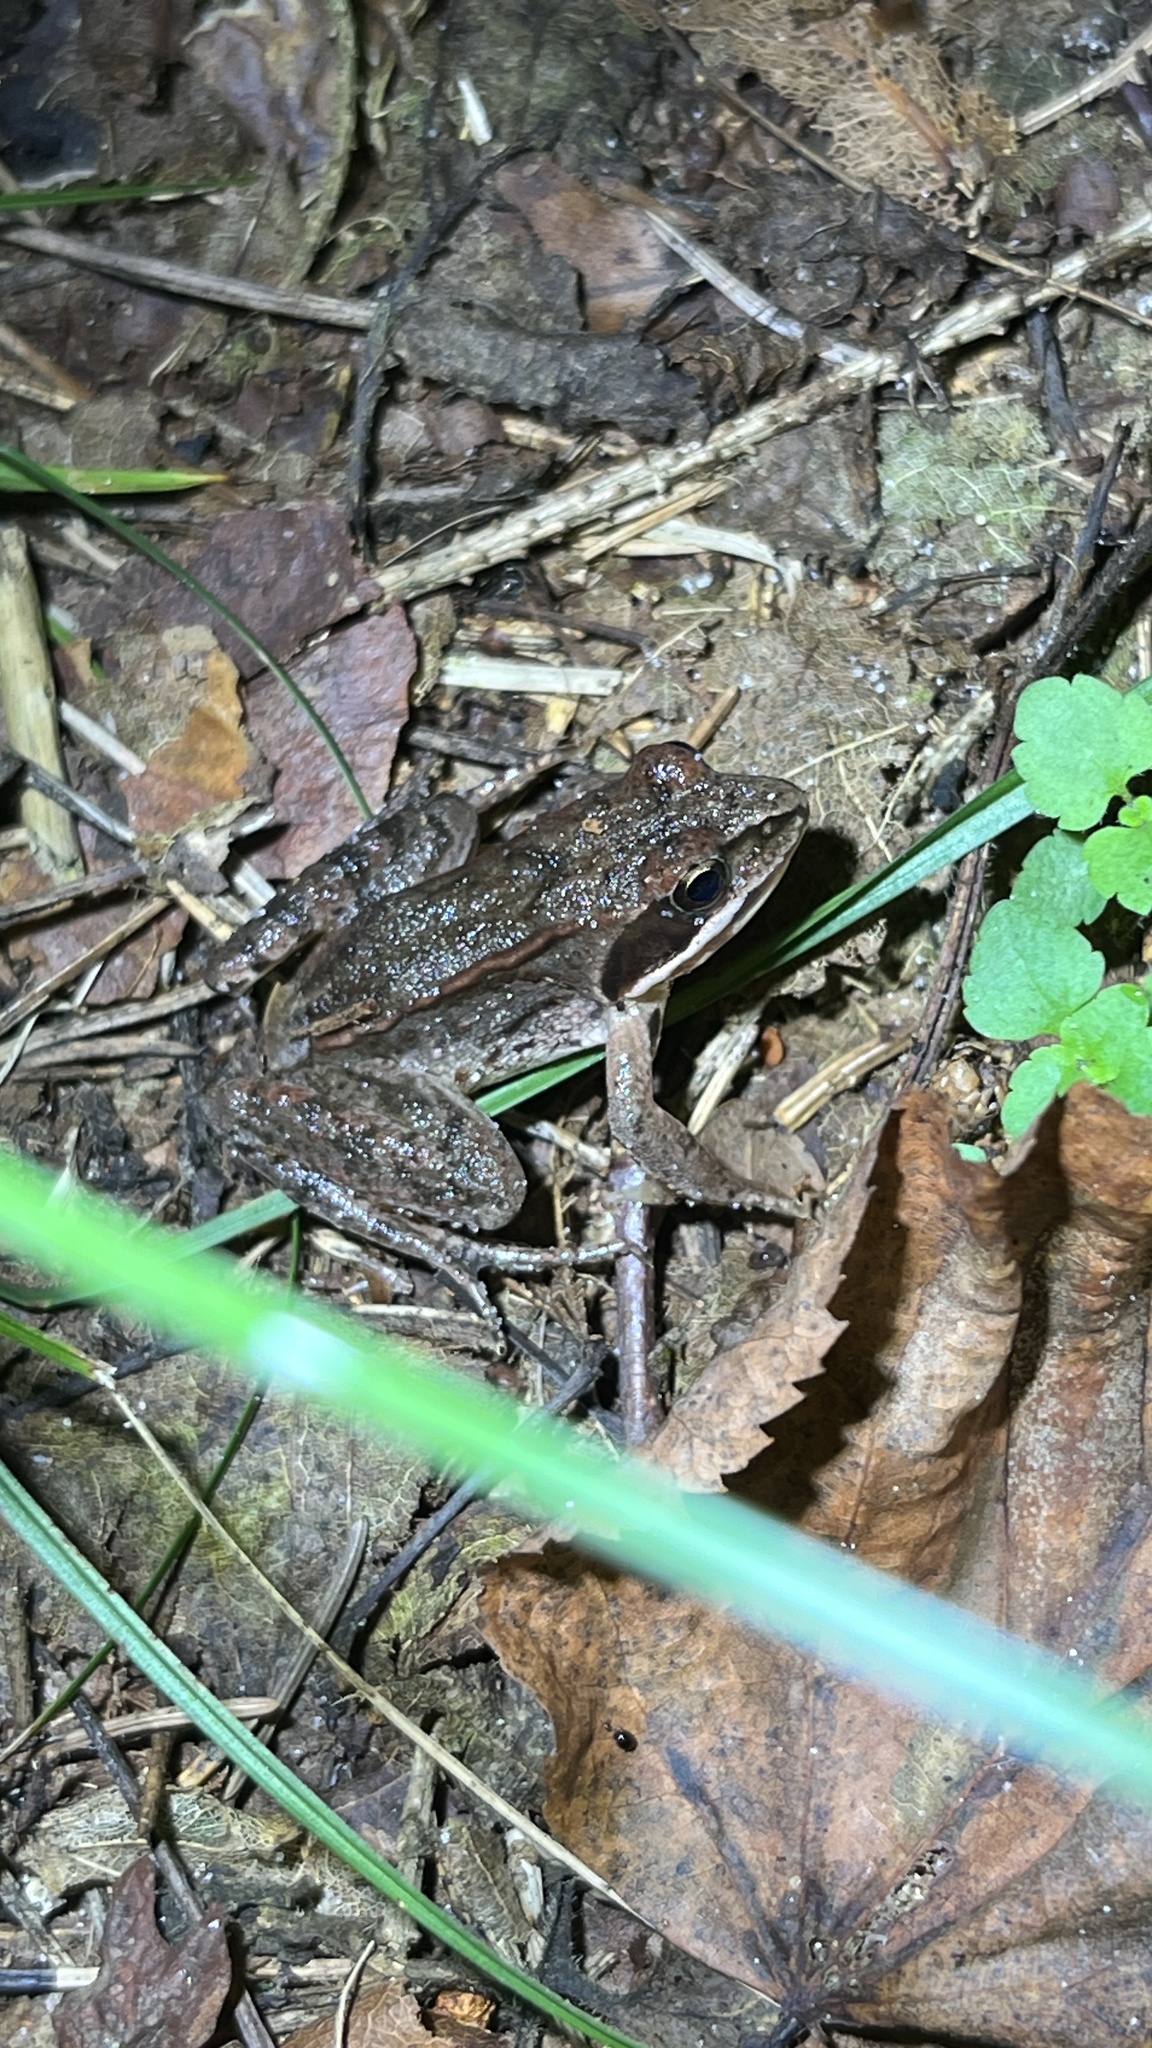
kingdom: Animalia
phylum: Chordata
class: Amphibia
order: Anura
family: Ranidae
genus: Rana
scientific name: Rana arvalis
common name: Moor frog
